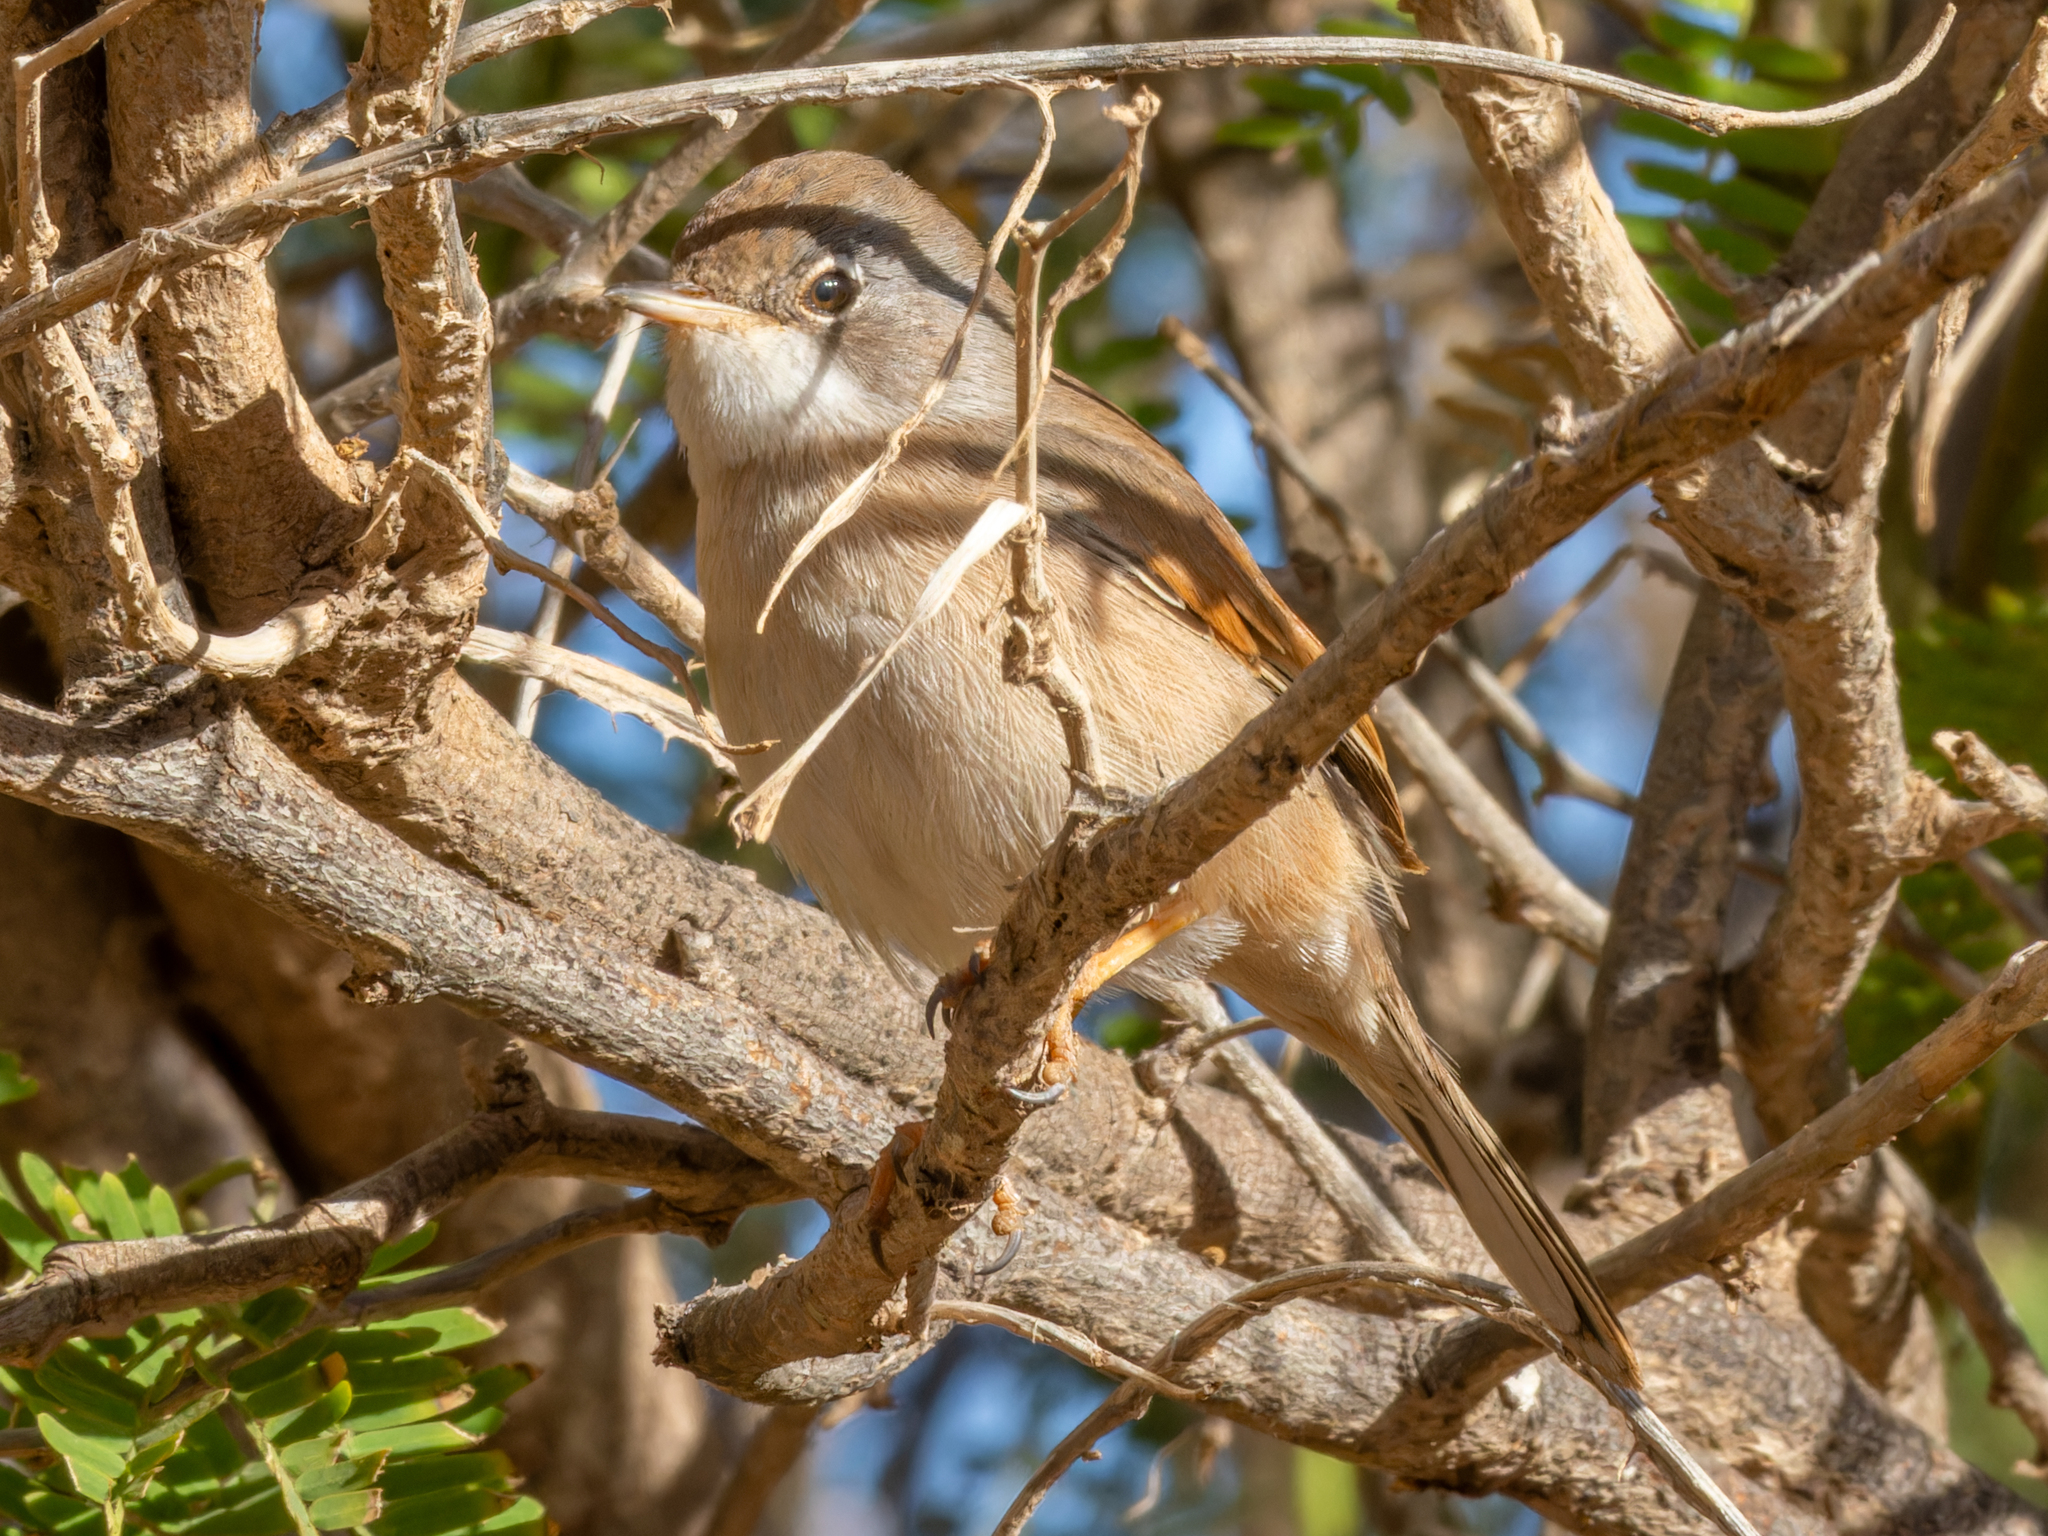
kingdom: Animalia
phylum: Chordata
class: Aves
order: Passeriformes
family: Sylviidae
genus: Sylvia
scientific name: Sylvia conspicillata
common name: Spectacled warbler
